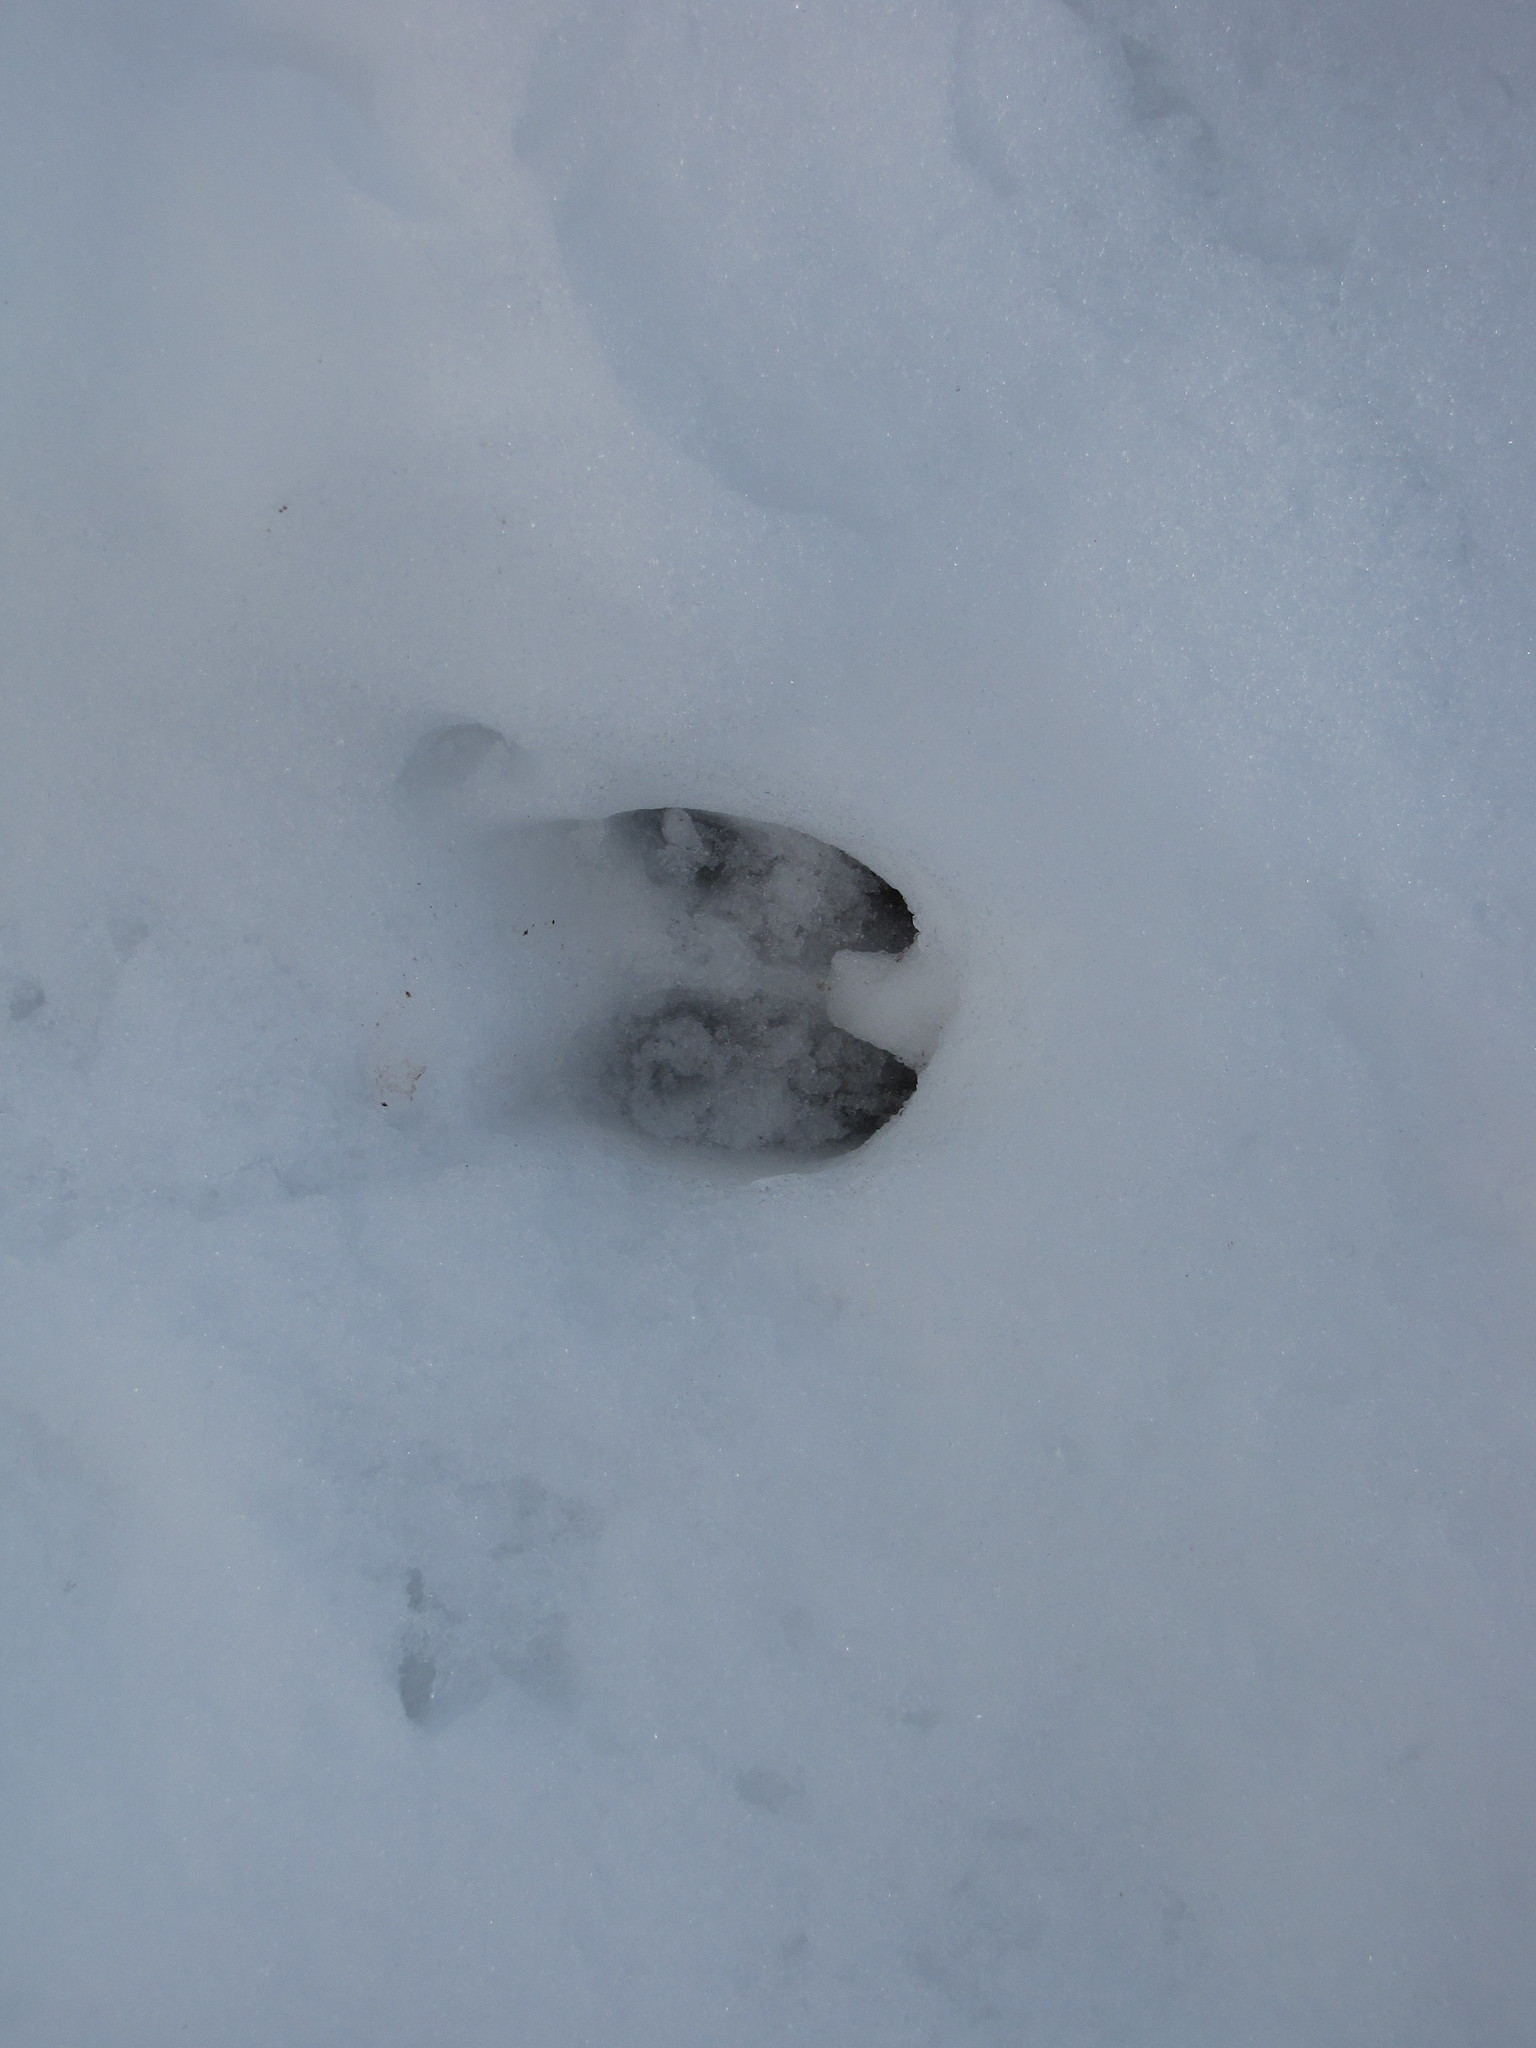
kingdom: Animalia
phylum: Chordata
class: Mammalia
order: Artiodactyla
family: Cervidae
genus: Odocoileus
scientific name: Odocoileus hemionus
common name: Mule deer
